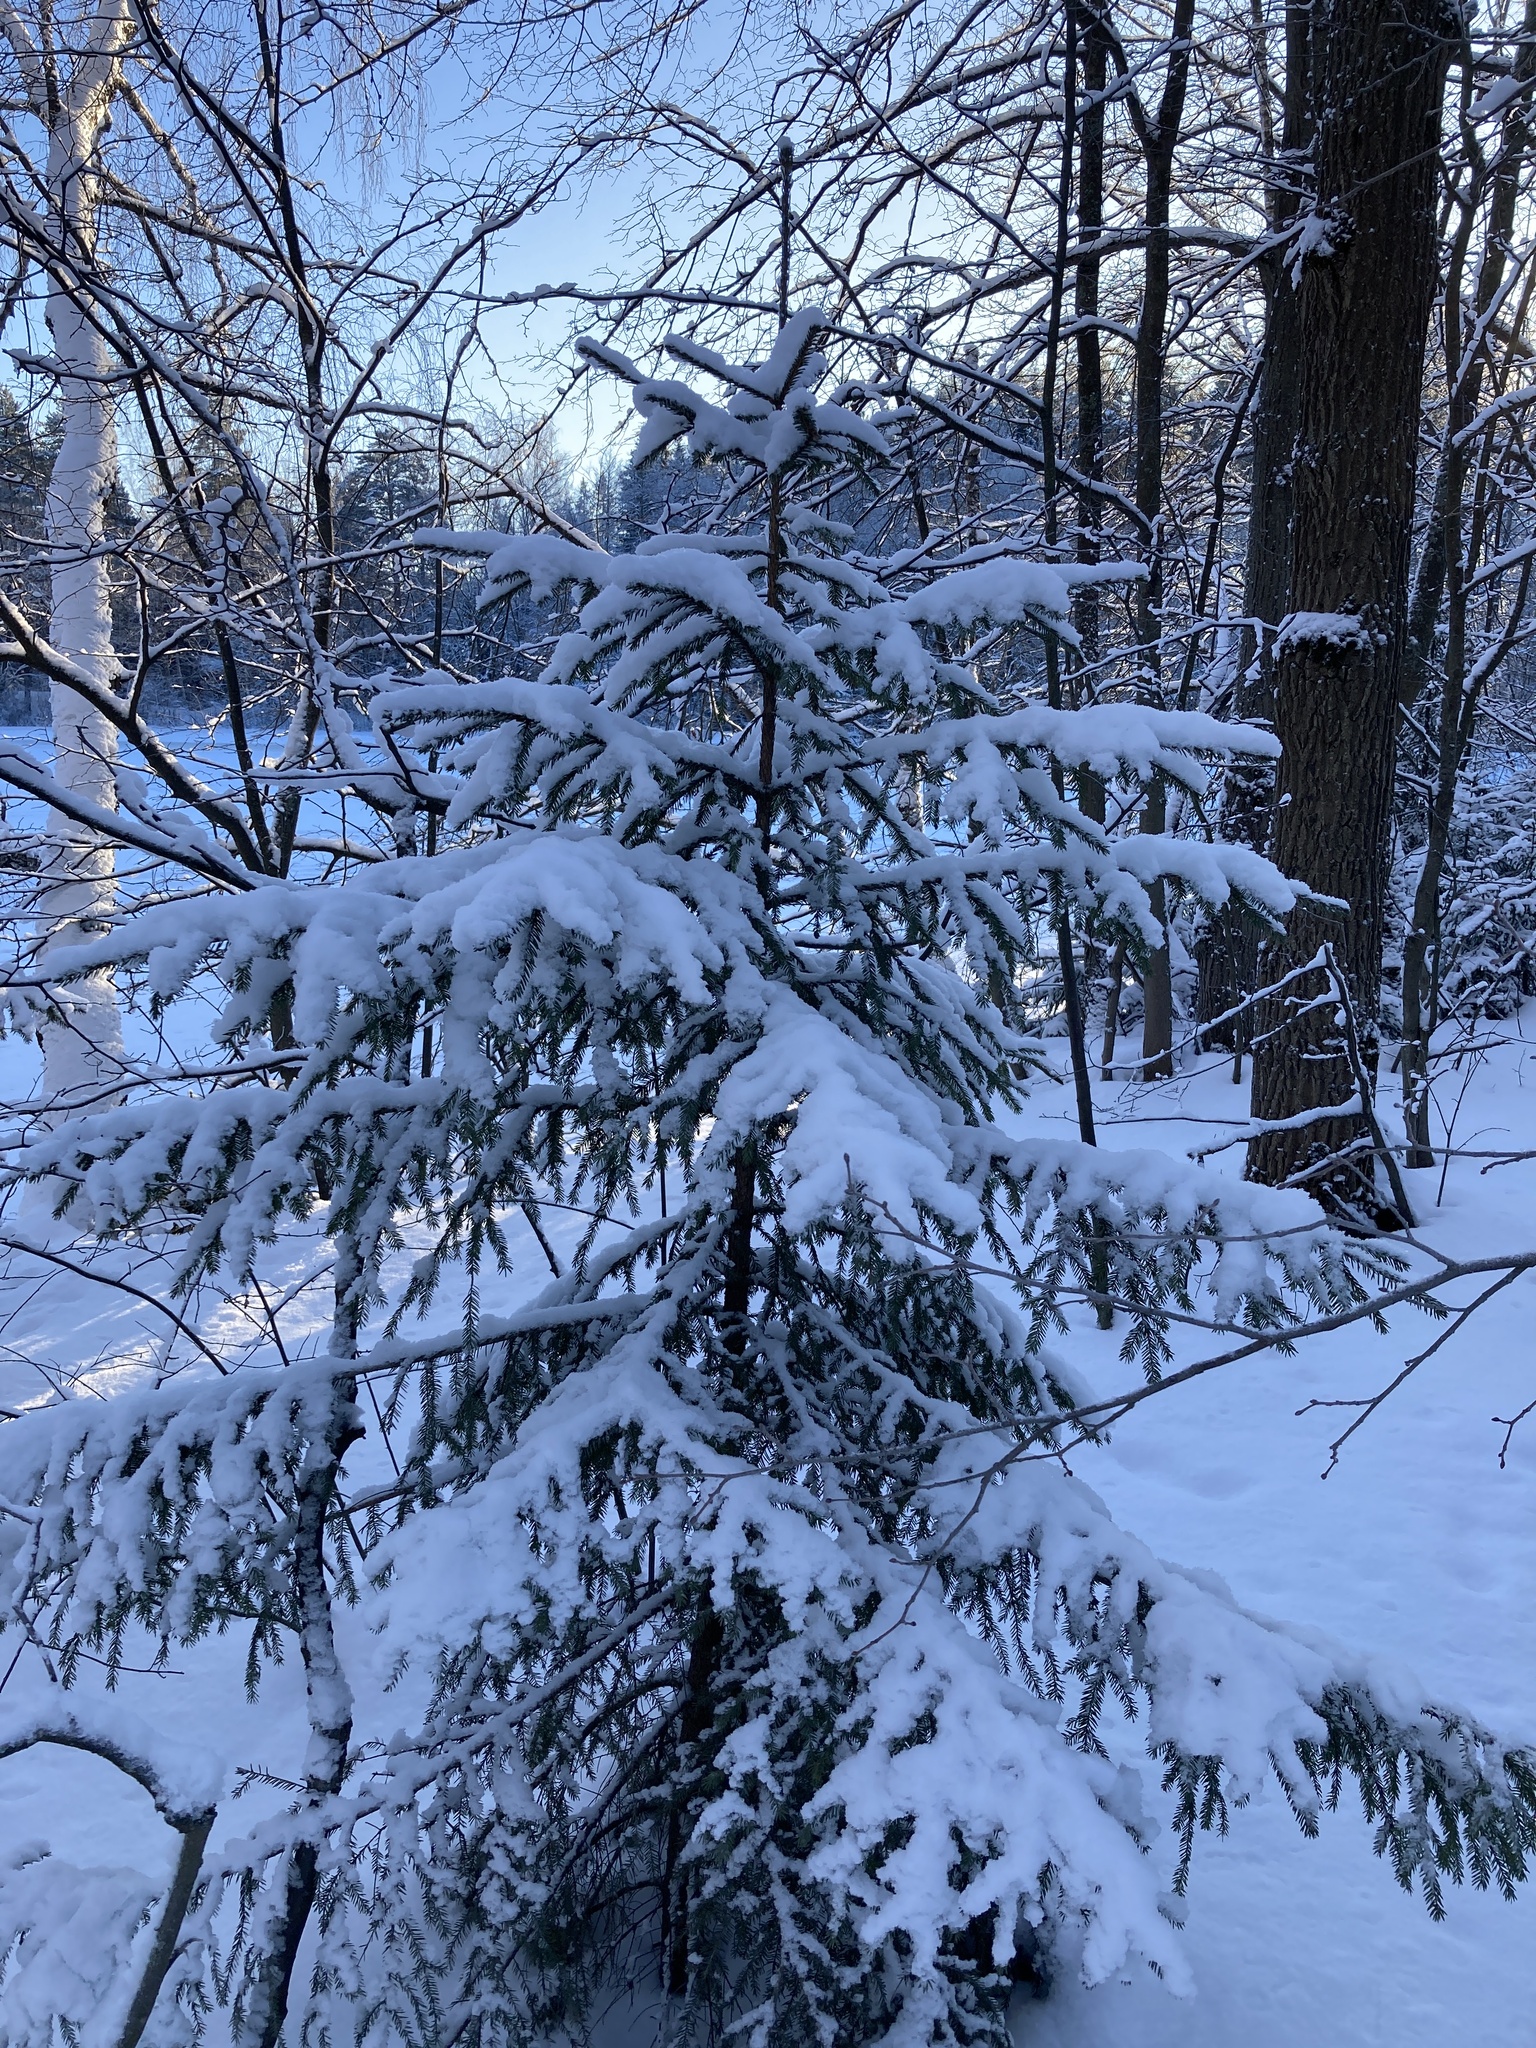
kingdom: Plantae
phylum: Tracheophyta
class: Pinopsida
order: Pinales
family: Pinaceae
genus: Picea
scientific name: Picea abies
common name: Norway spruce
